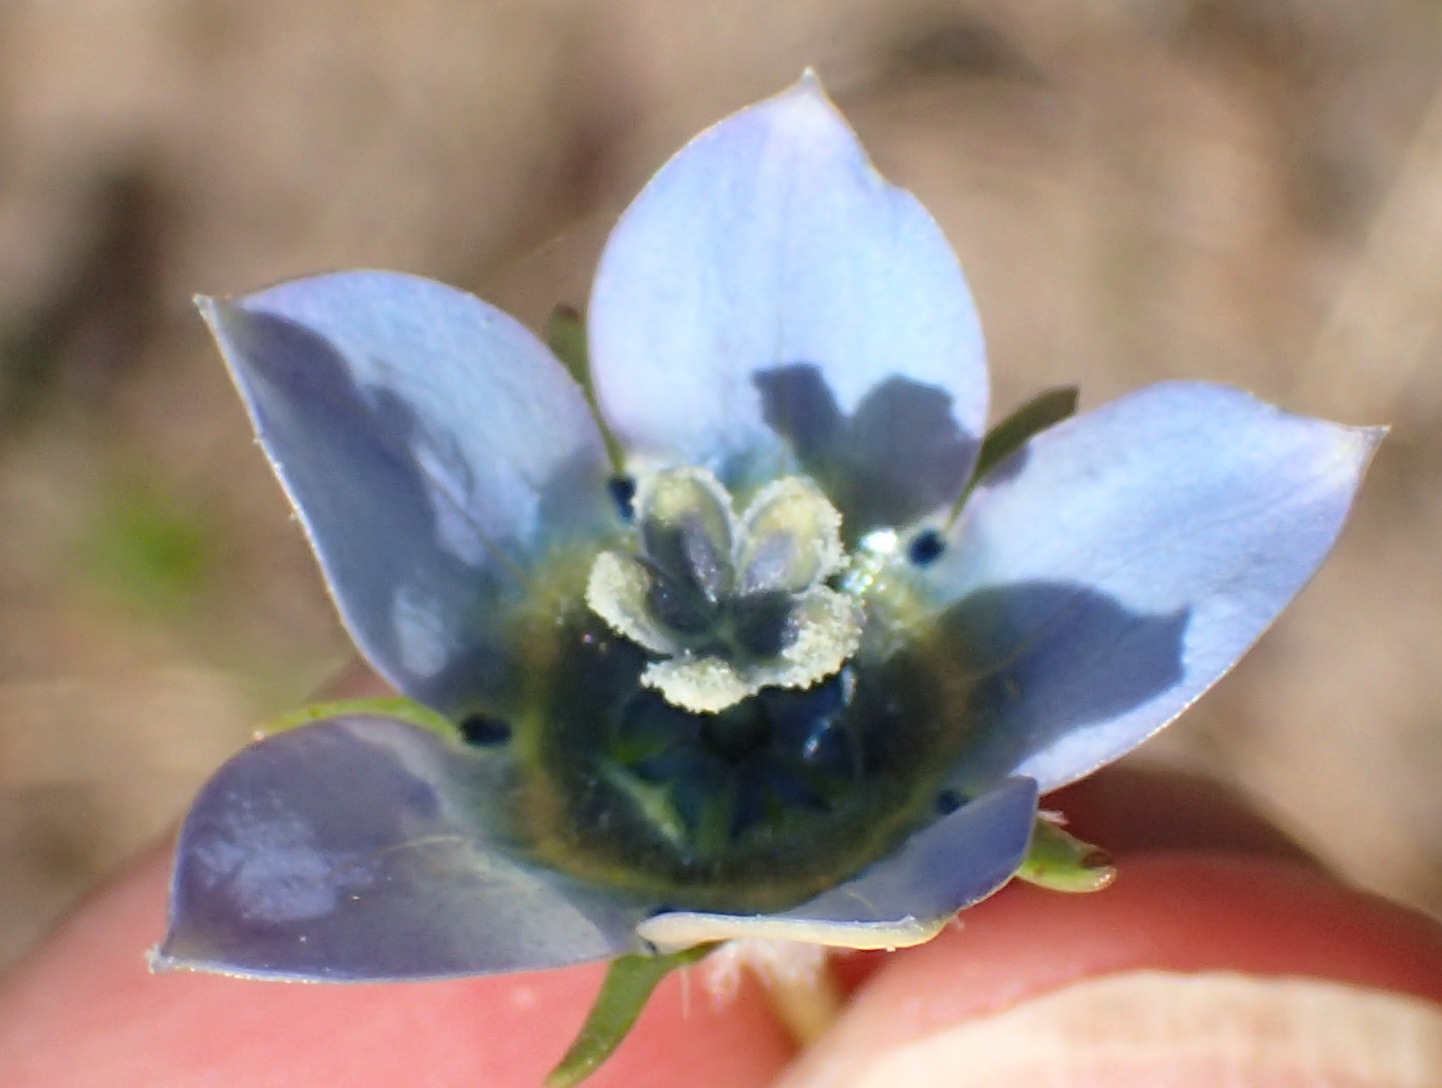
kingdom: Plantae
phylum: Tracheophyta
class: Magnoliopsida
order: Asterales
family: Campanulaceae
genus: Wahlenbergia
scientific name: Wahlenbergia capensis
